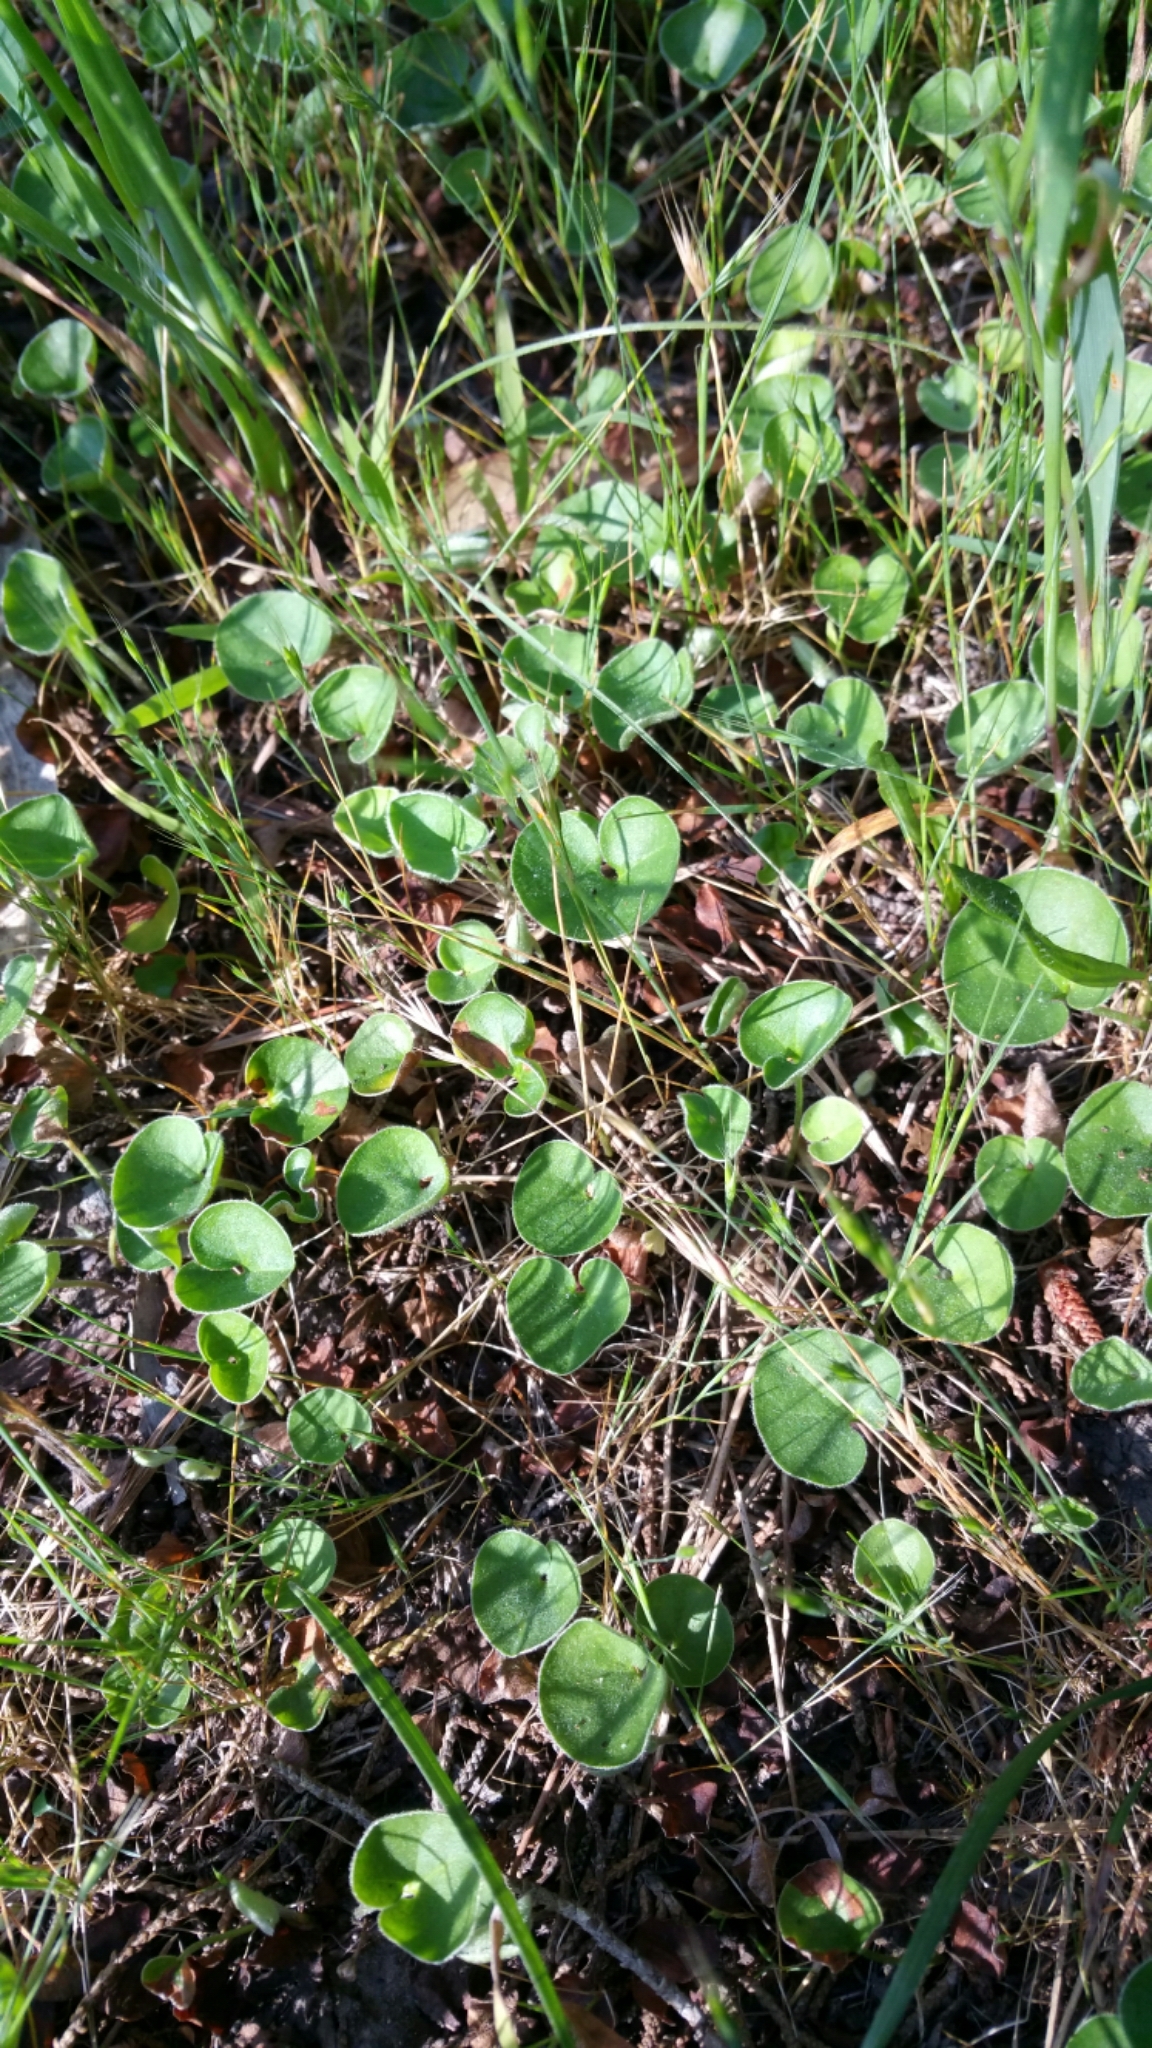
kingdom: Plantae
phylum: Tracheophyta
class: Magnoliopsida
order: Solanales
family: Convolvulaceae
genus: Dichondra
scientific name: Dichondra donelliana
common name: California ponysfoot
